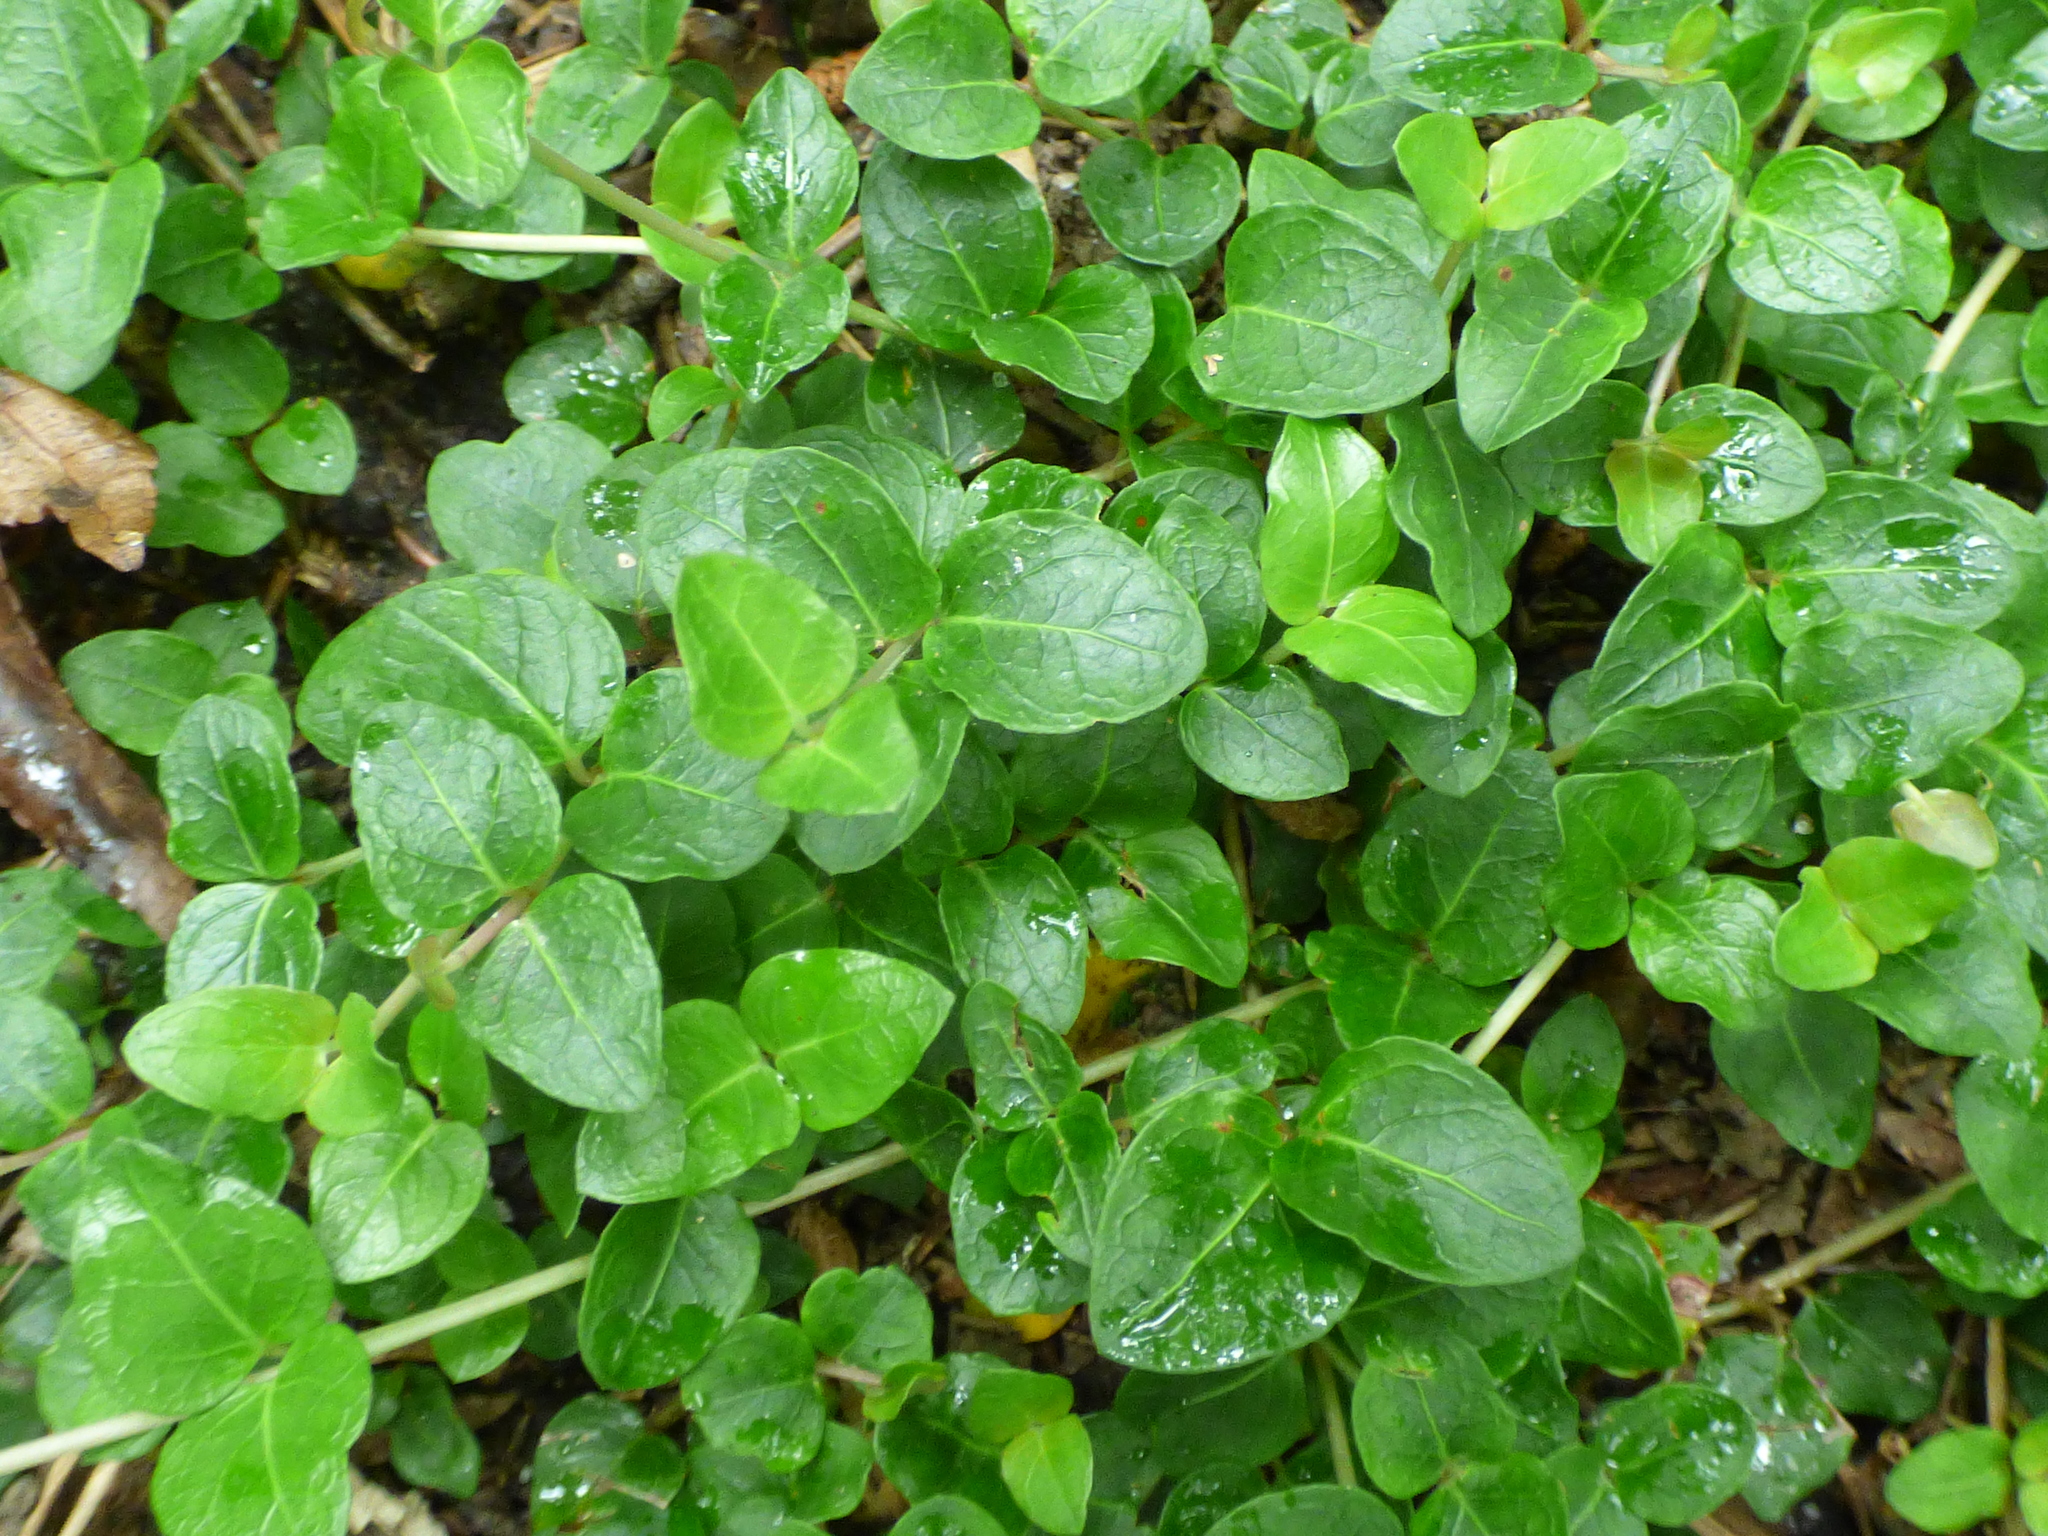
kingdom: Plantae
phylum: Tracheophyta
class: Magnoliopsida
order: Gentianales
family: Rubiaceae
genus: Mitchella
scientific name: Mitchella repens
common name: Partridge-berry
